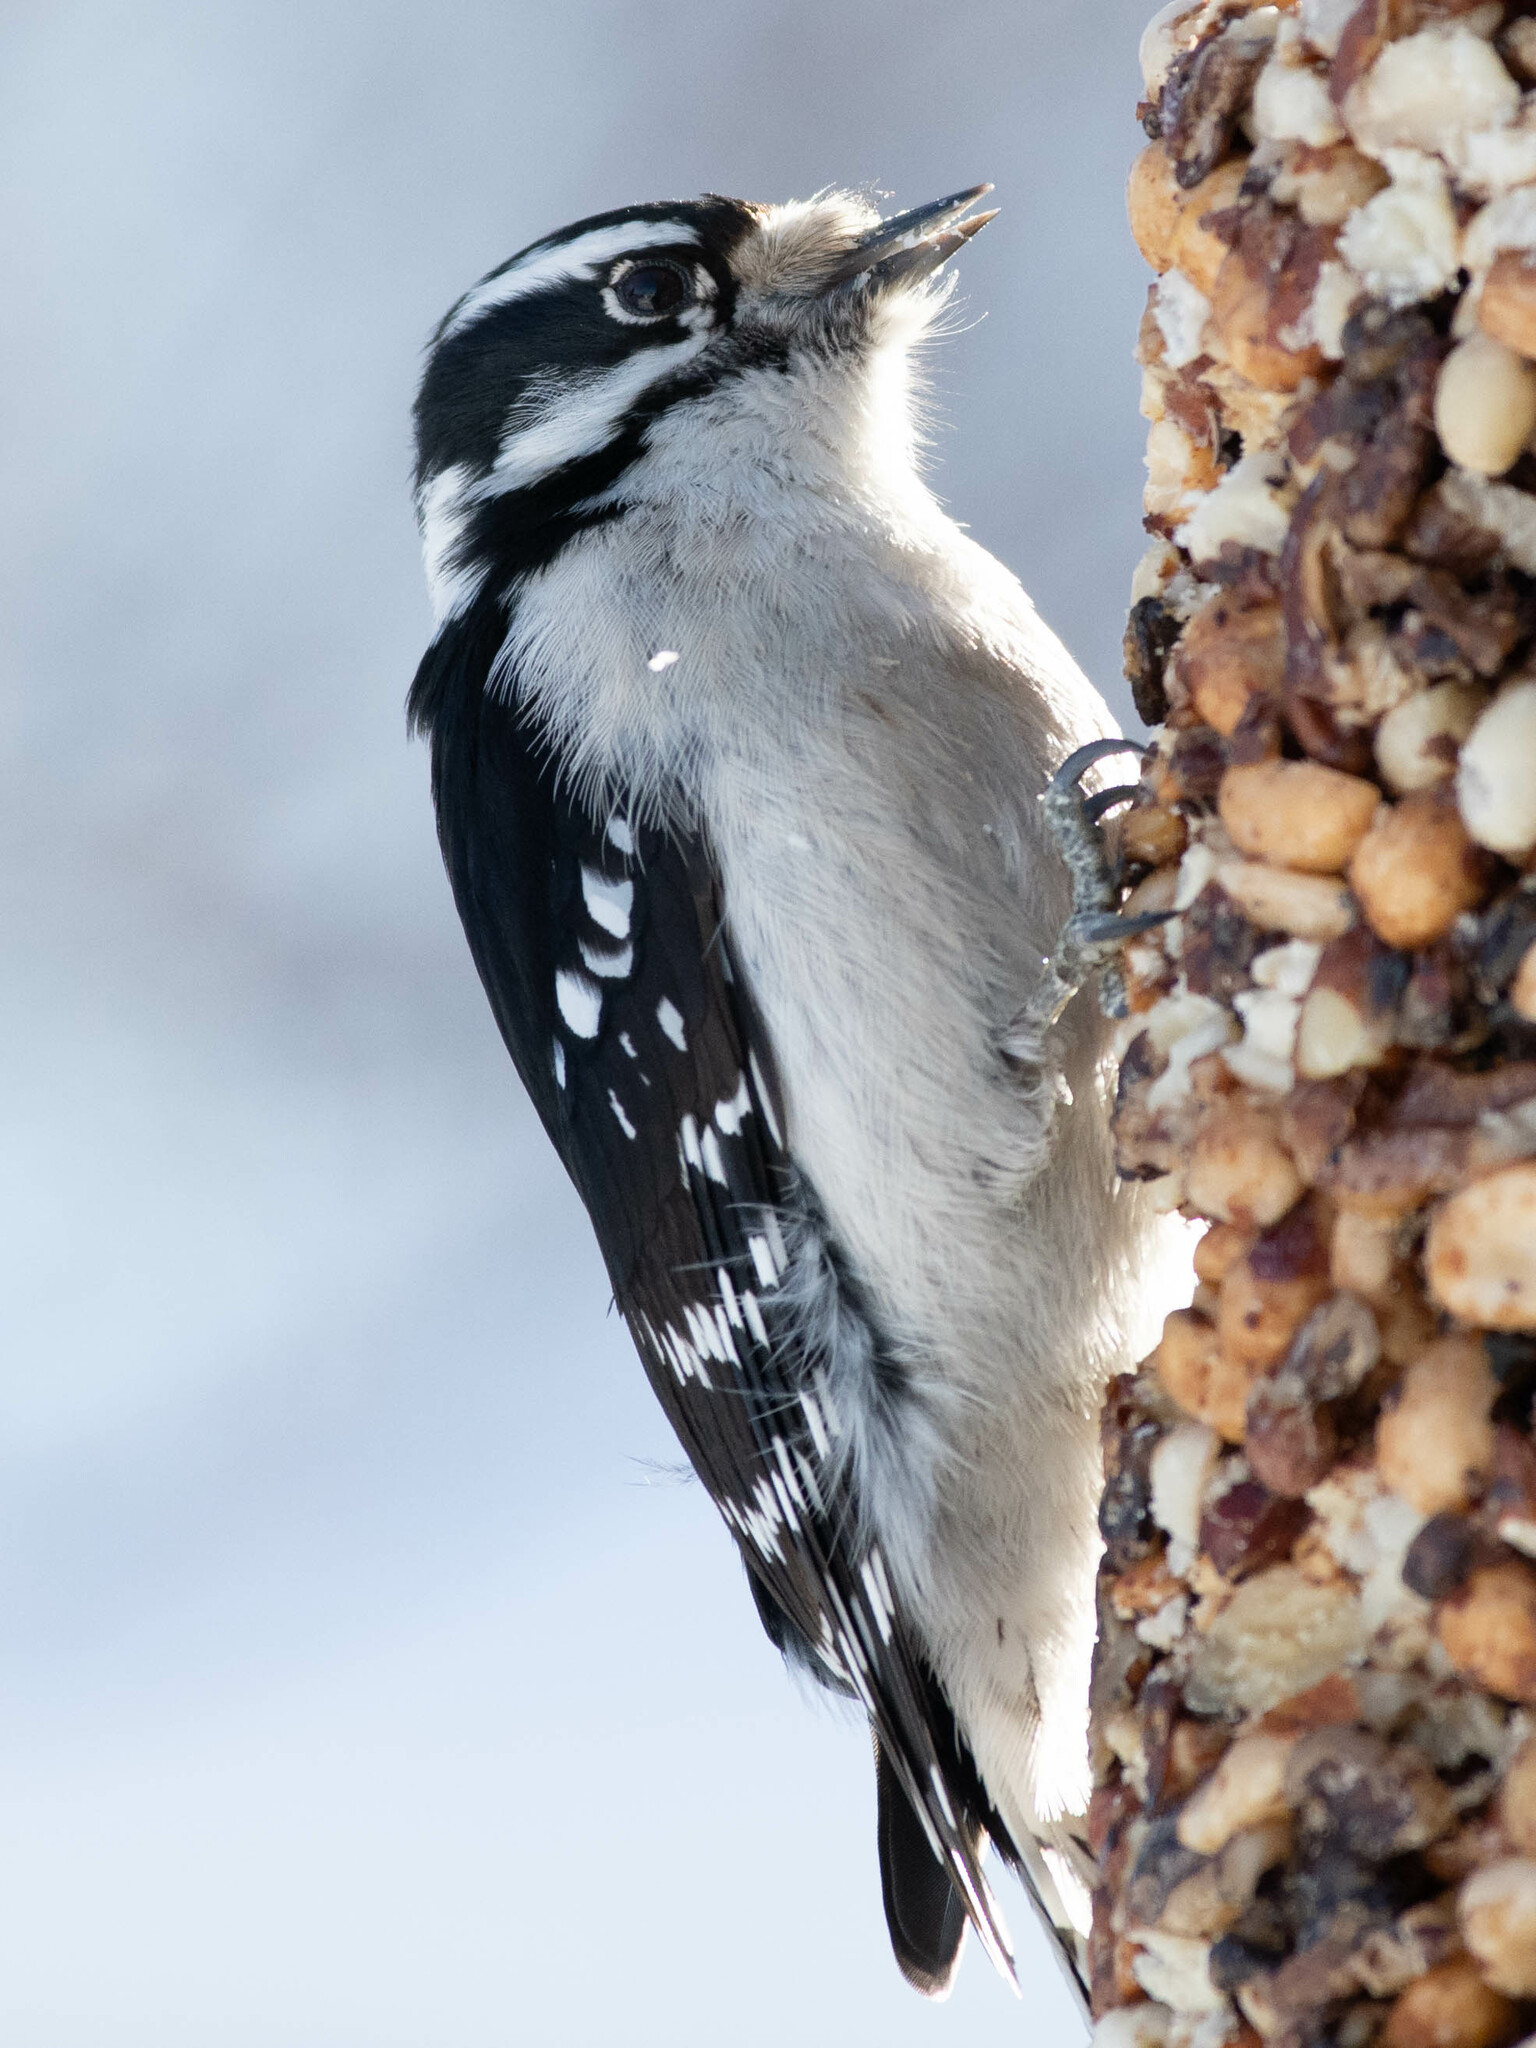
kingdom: Animalia
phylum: Chordata
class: Aves
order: Piciformes
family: Picidae
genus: Dryobates
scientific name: Dryobates pubescens
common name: Downy woodpecker
